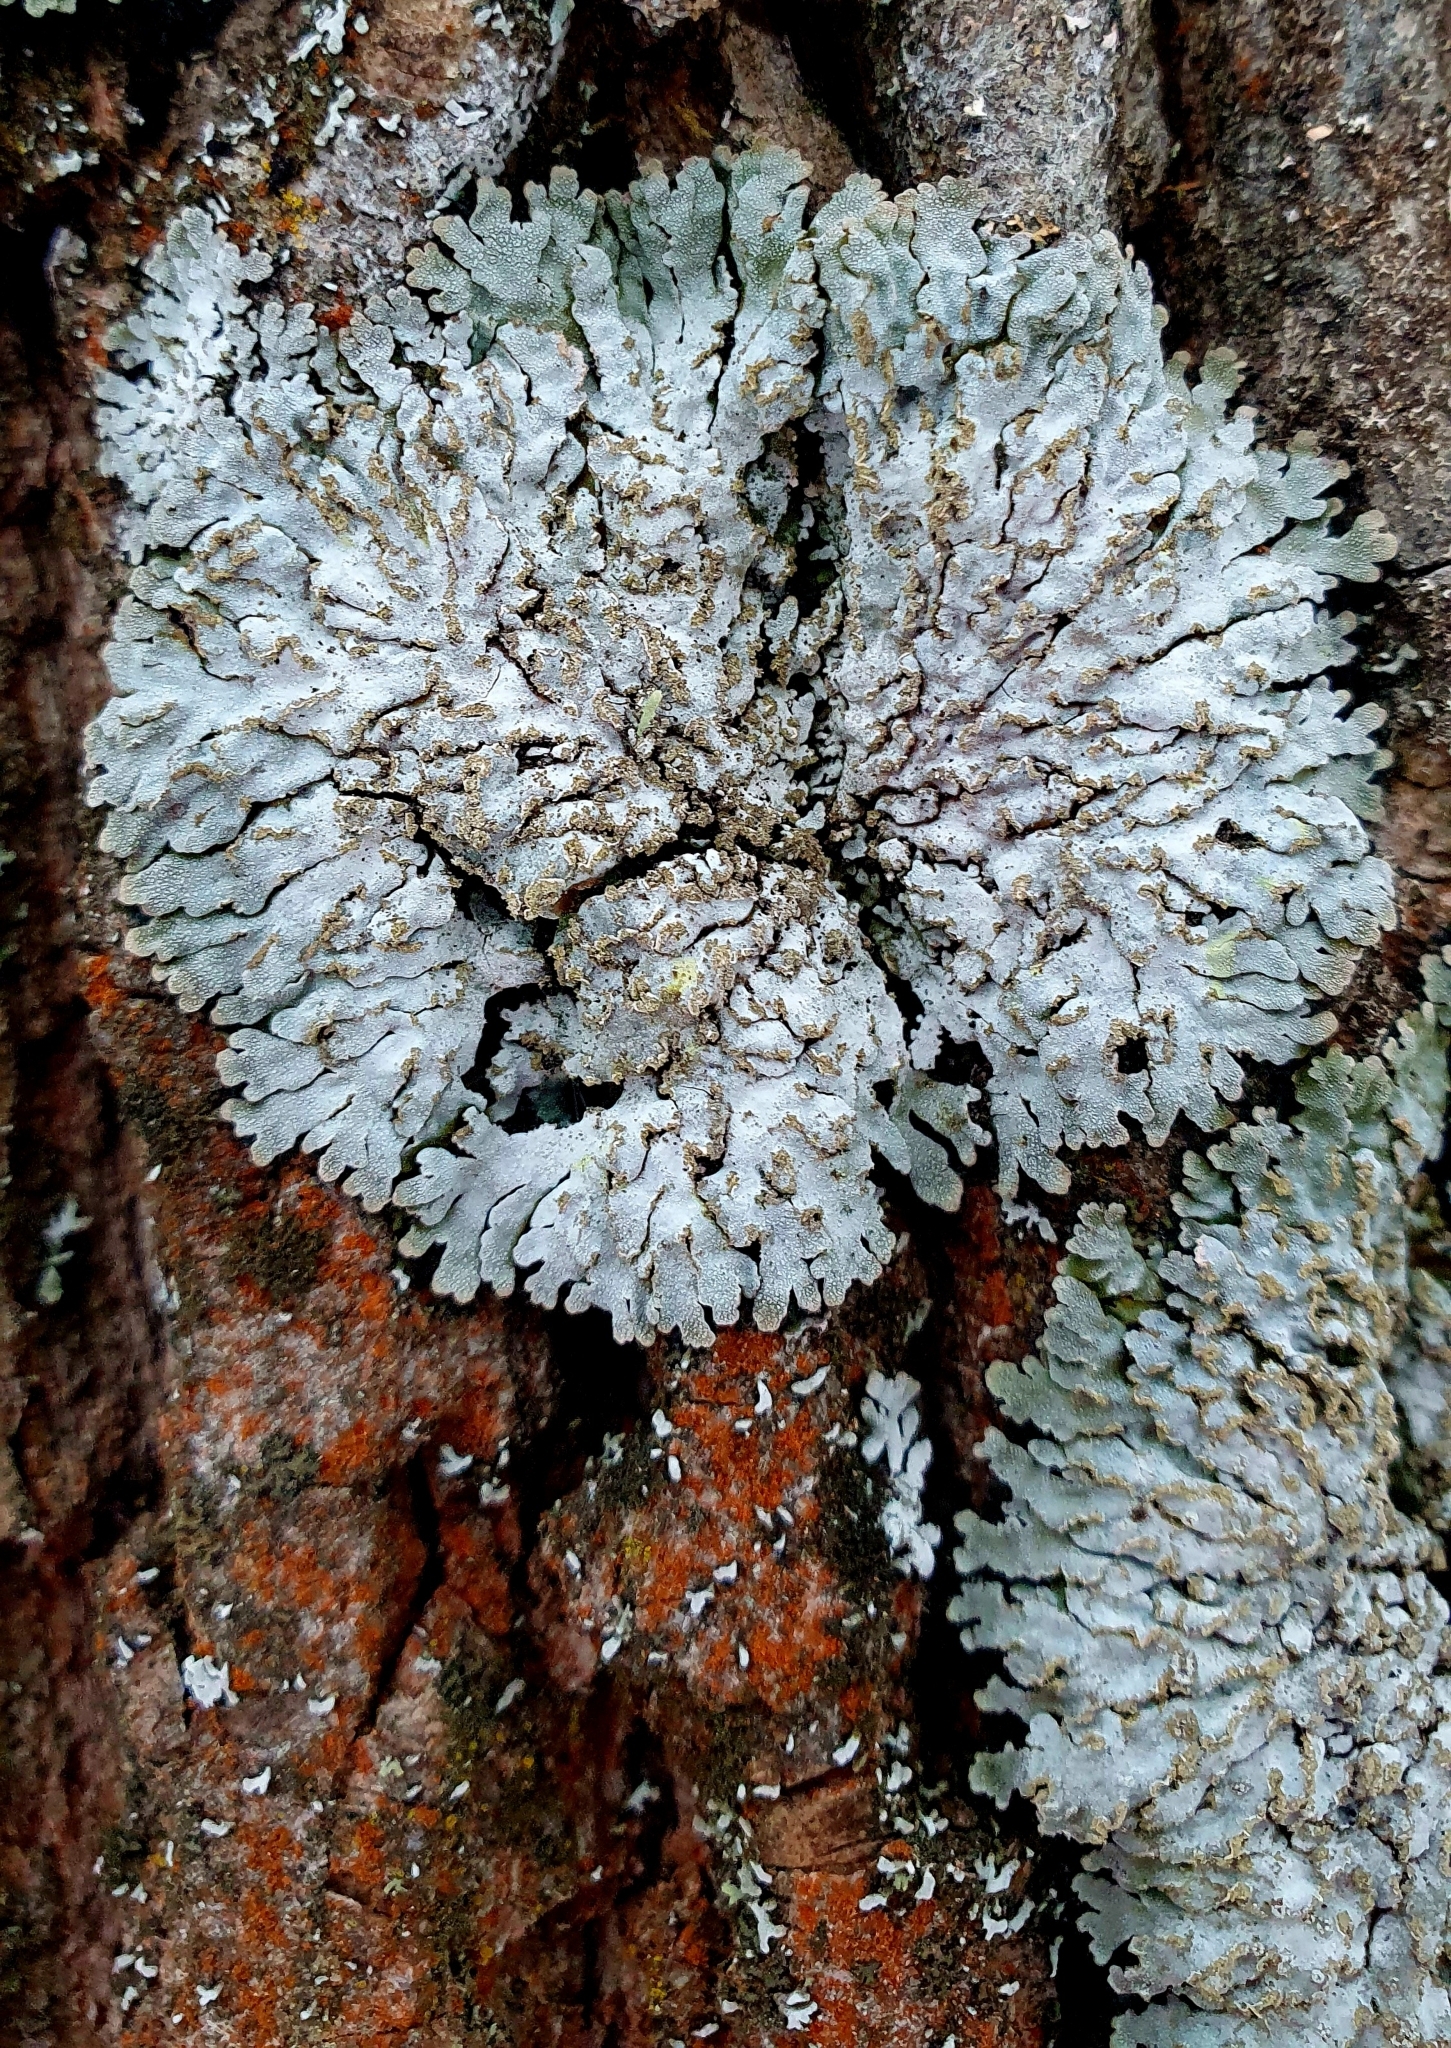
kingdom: Fungi
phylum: Ascomycota
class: Lecanoromycetes
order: Caliciales
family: Physciaceae
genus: Physconia
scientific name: Physconia enteroxantha
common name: Yellow-edged frost lichen
